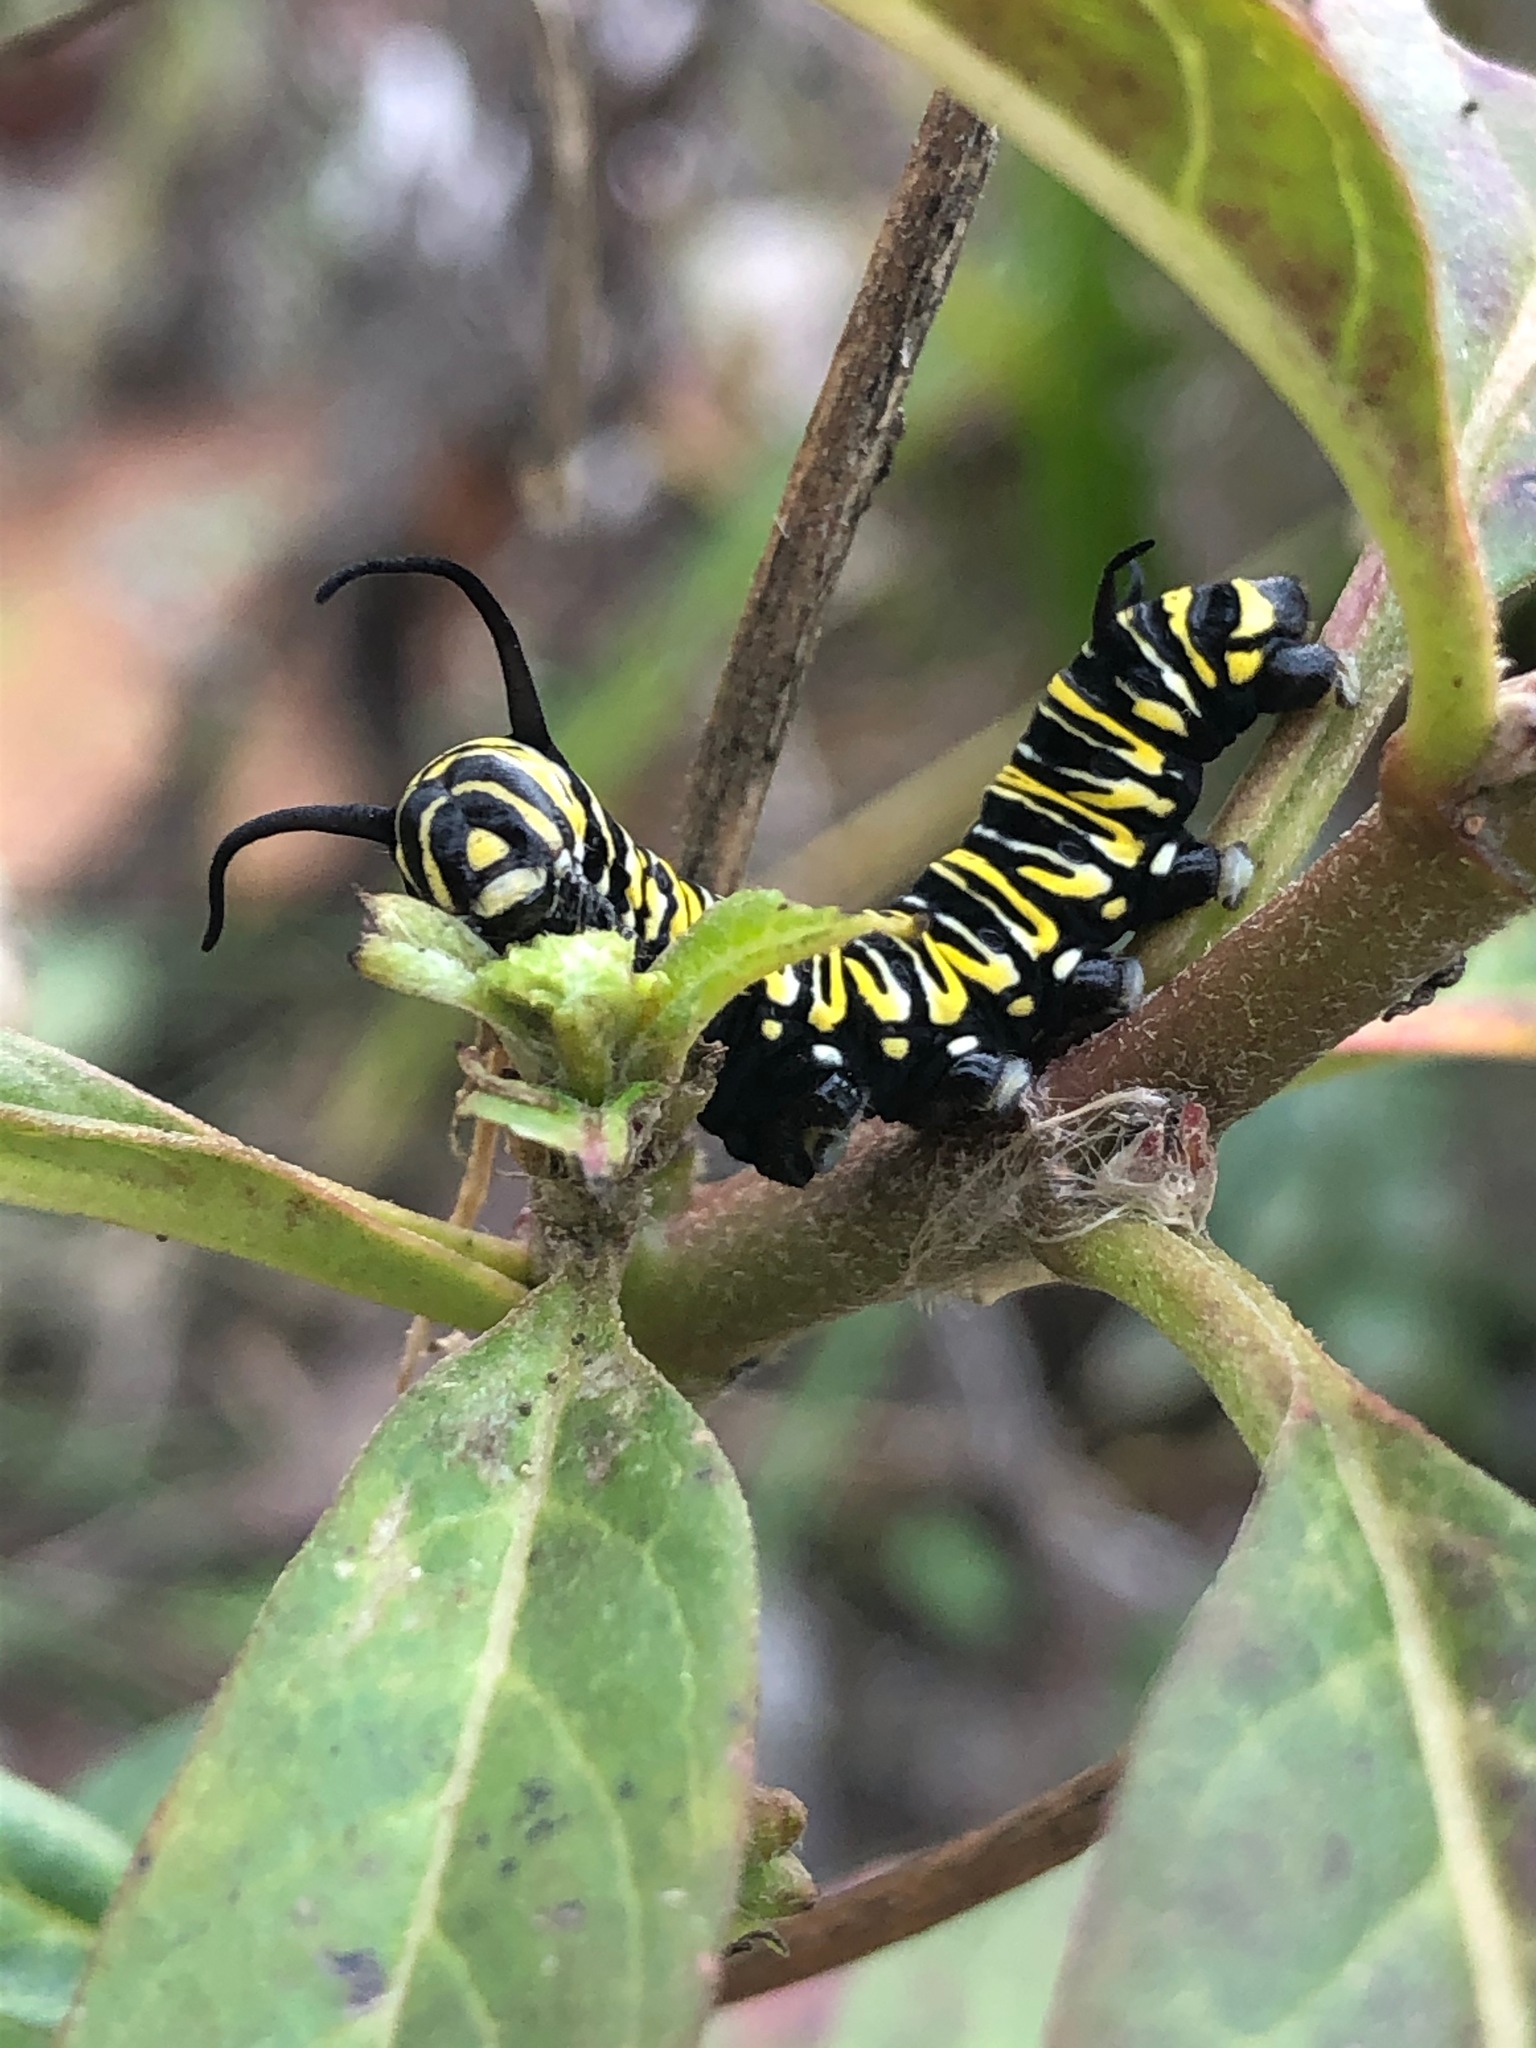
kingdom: Animalia
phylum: Arthropoda
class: Insecta
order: Lepidoptera
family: Nymphalidae
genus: Danaus
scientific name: Danaus plexippus
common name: Monarch
